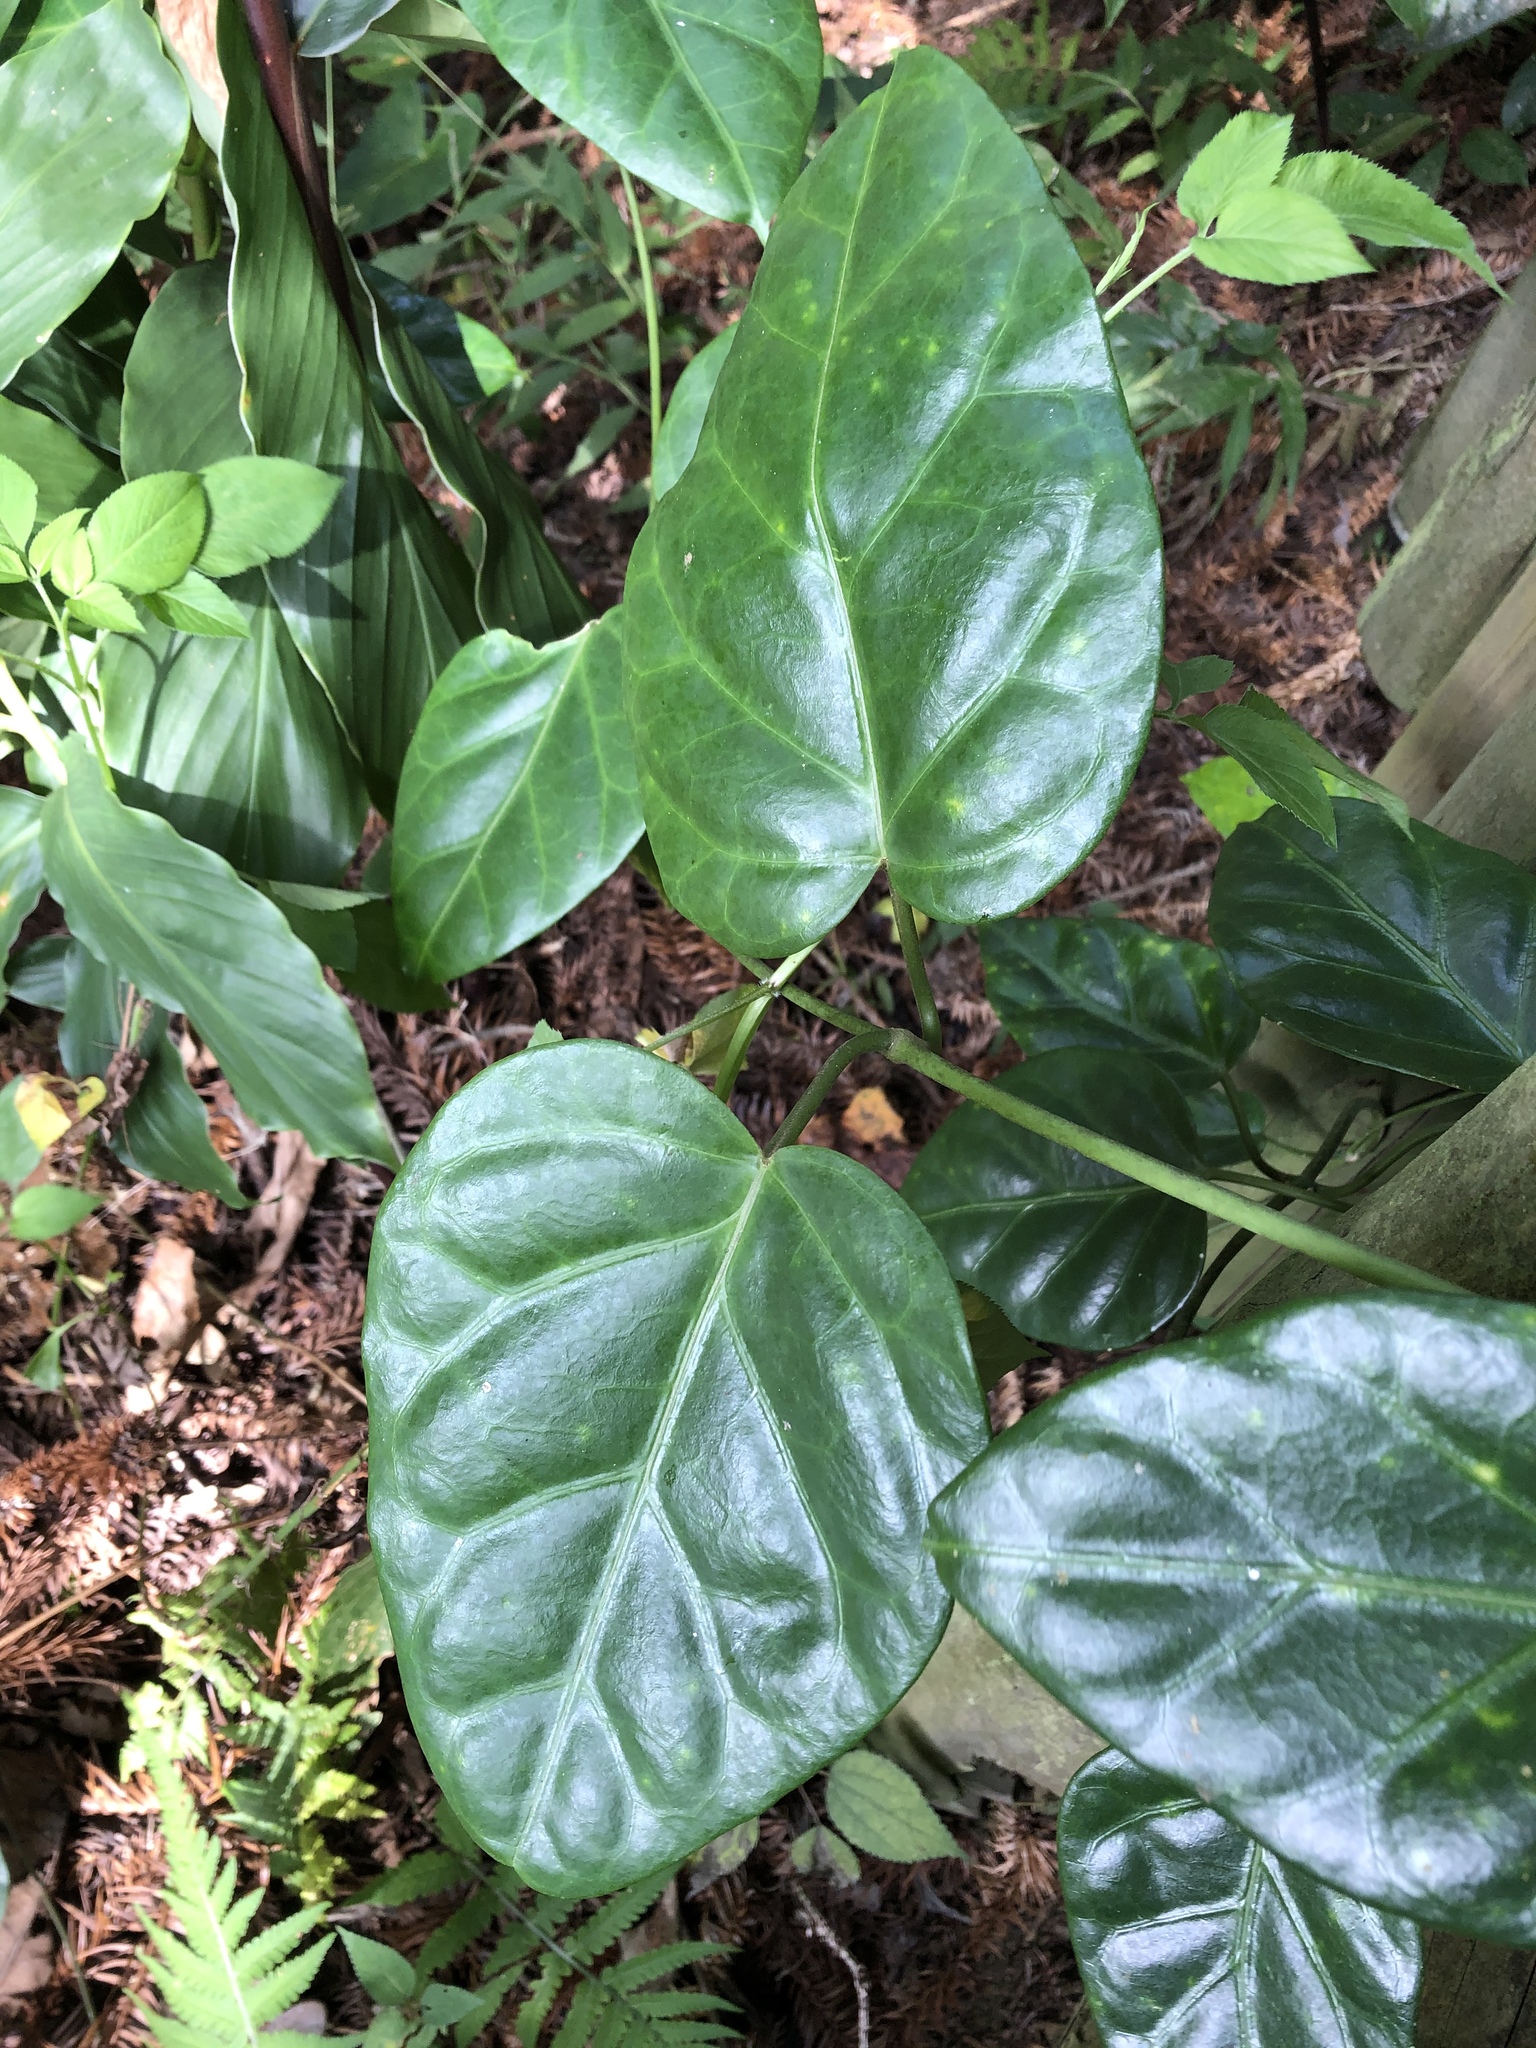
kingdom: Plantae
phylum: Tracheophyta
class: Magnoliopsida
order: Gentianales
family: Apocynaceae
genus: Sinomarsdenia
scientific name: Sinomarsdenia formosana
